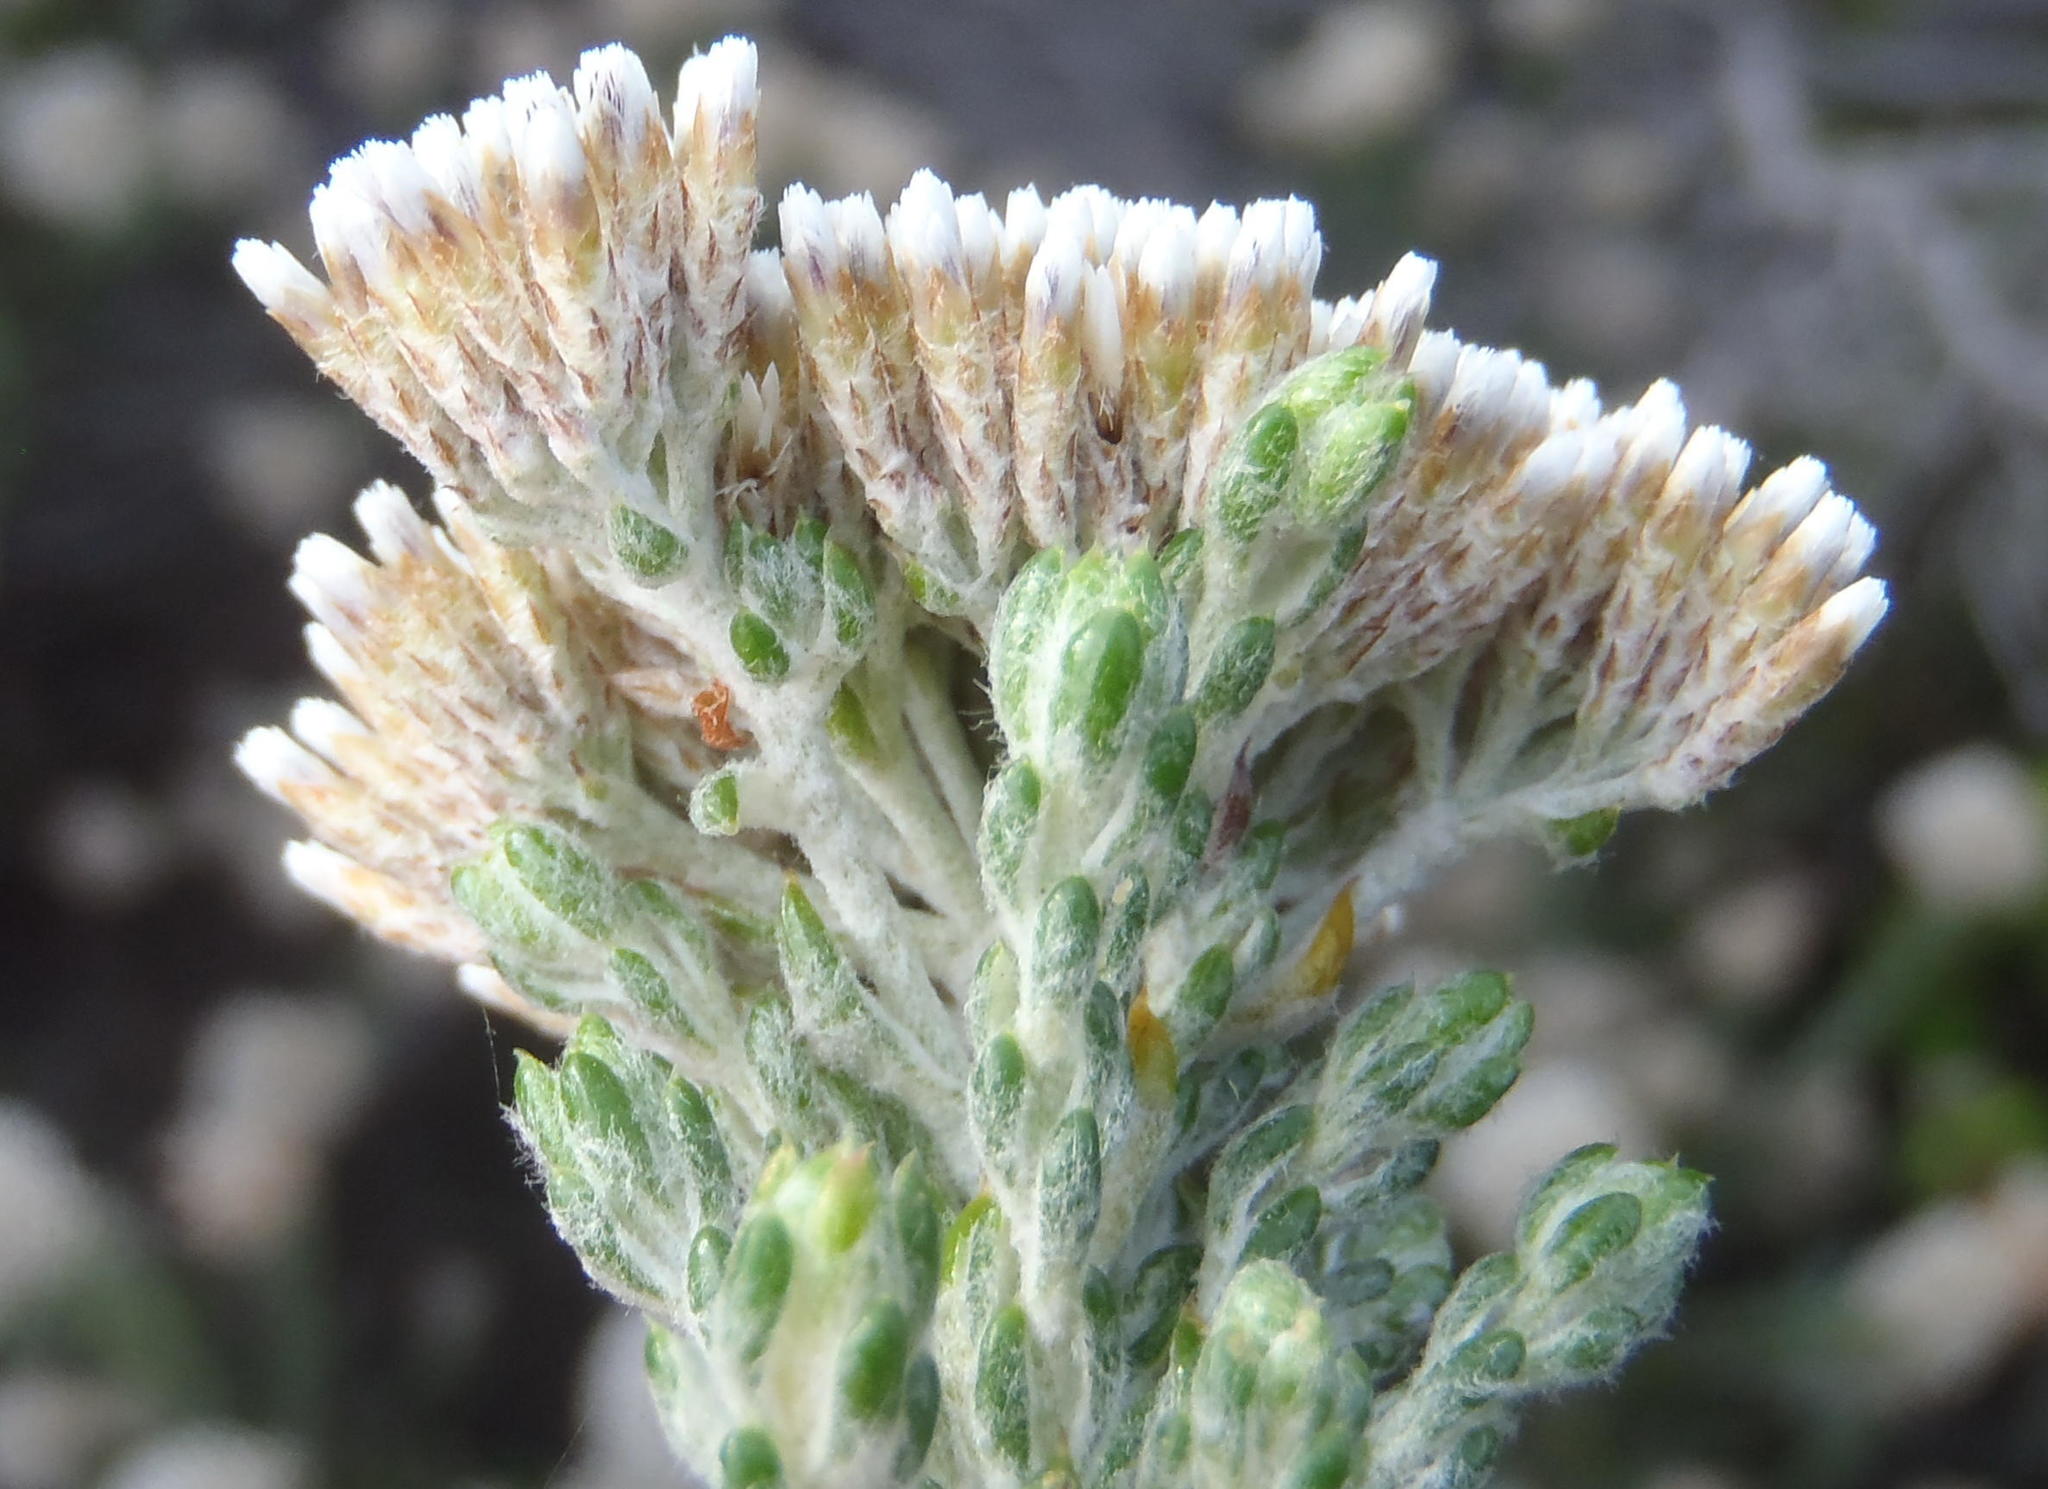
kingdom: Plantae
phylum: Tracheophyta
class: Magnoliopsida
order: Asterales
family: Asteraceae
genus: Metalasia
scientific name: Metalasia pungens
